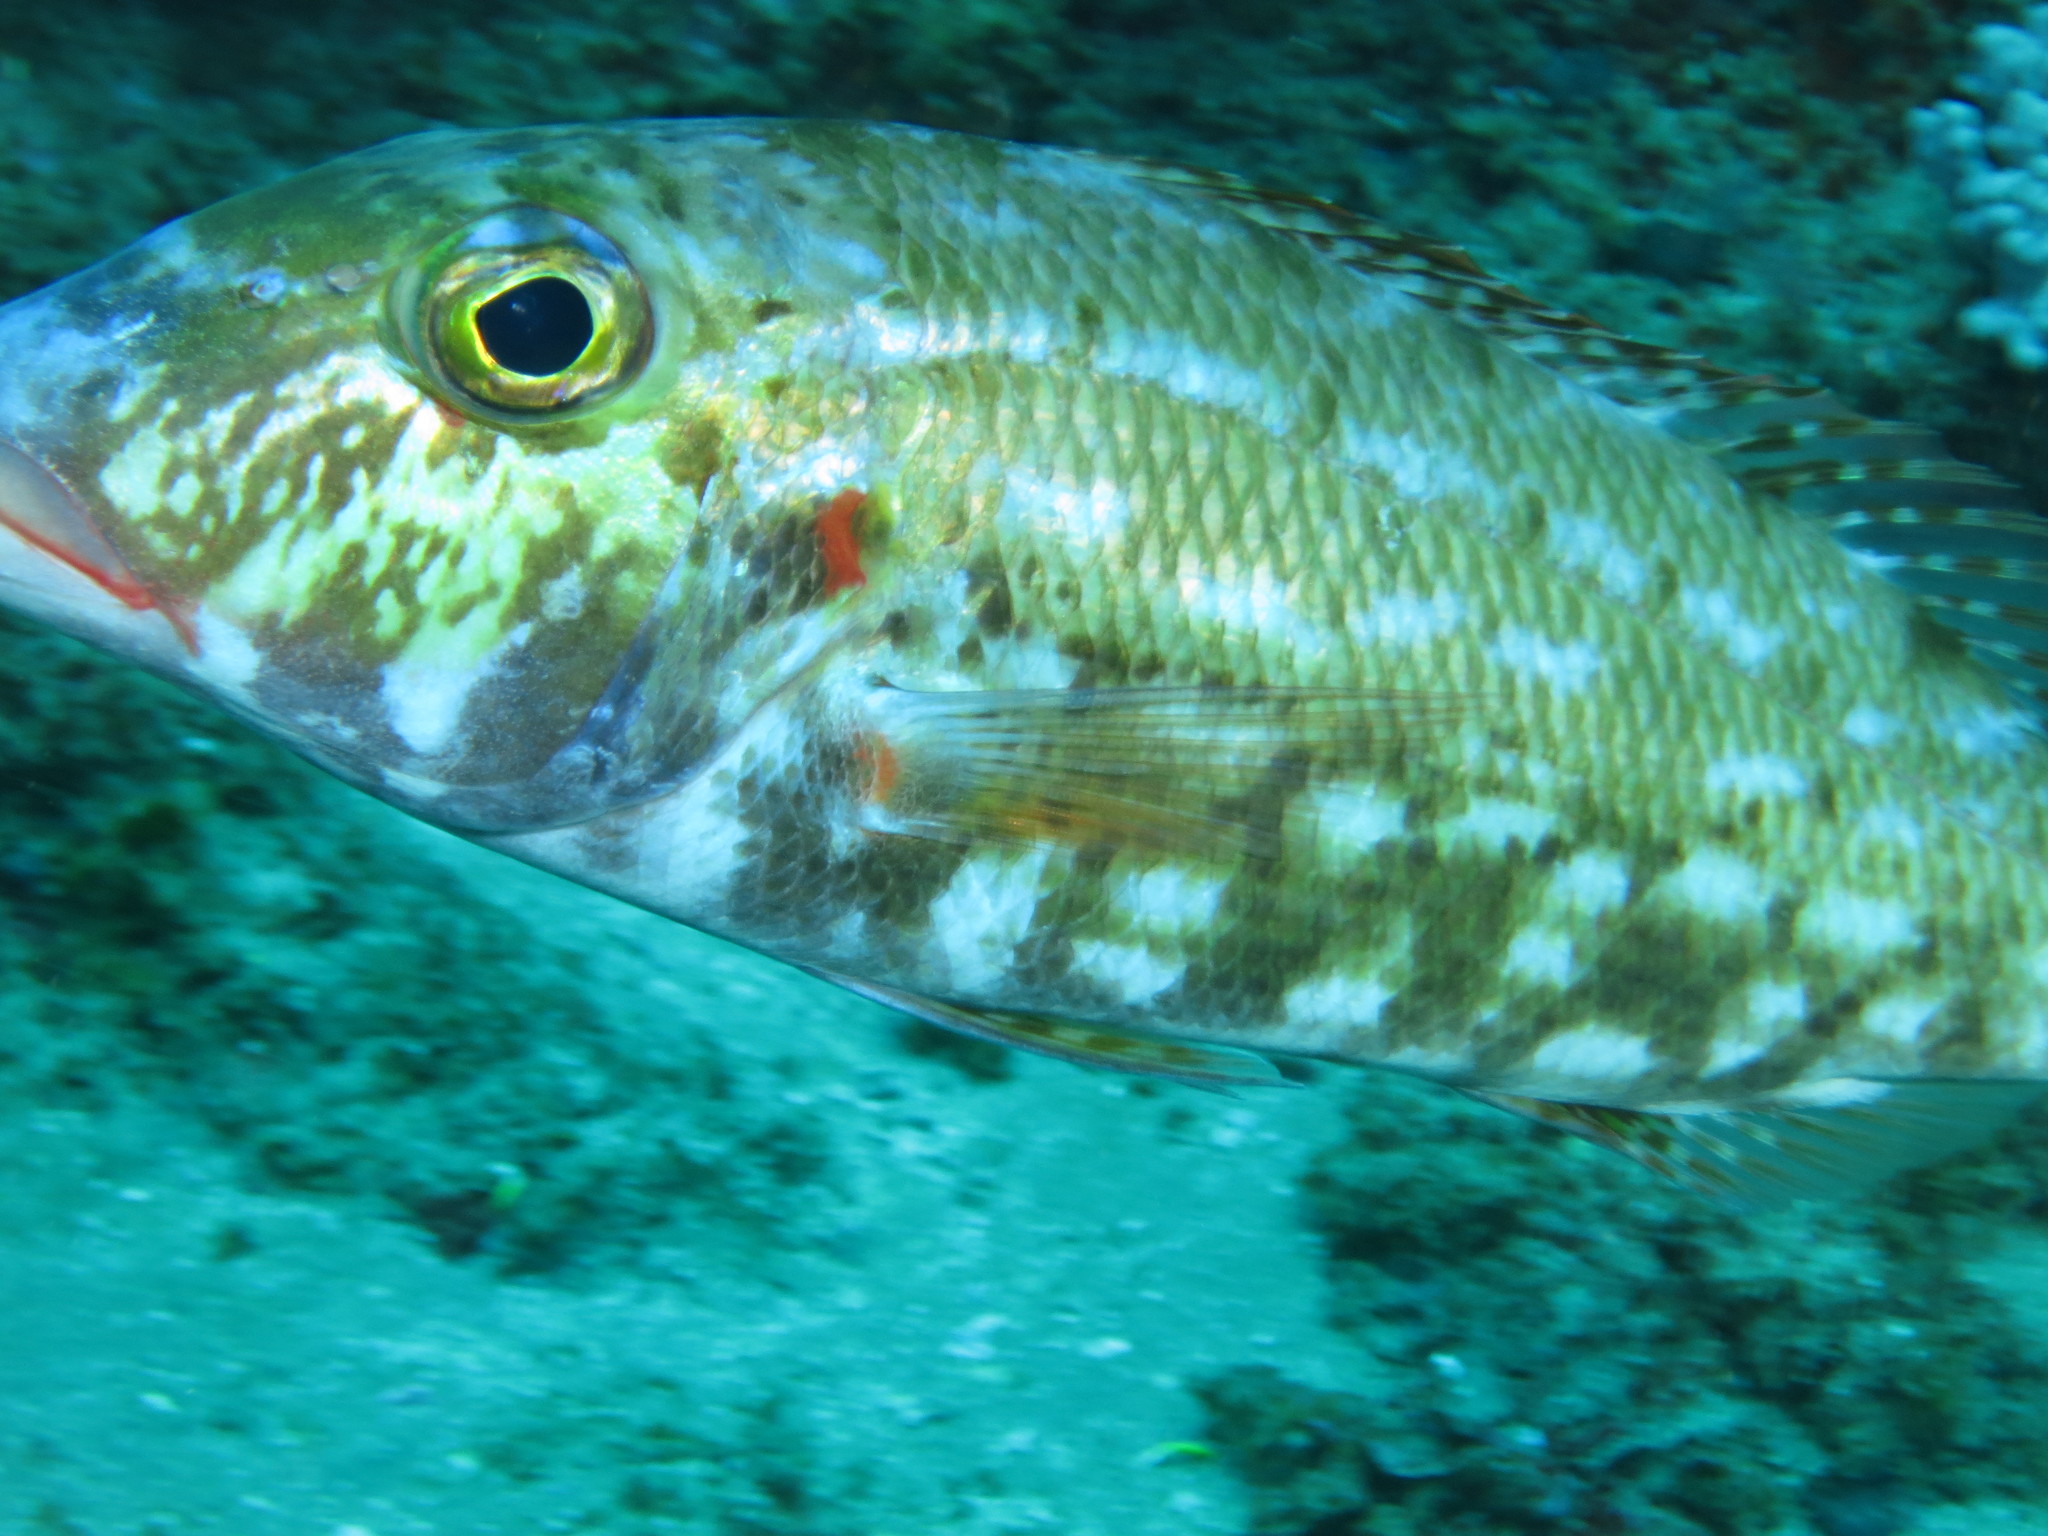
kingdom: Animalia
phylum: Chordata
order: Perciformes
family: Lethrinidae
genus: Lethrinus
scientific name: Lethrinus rubrioperculatus
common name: Spotcheek emperor
